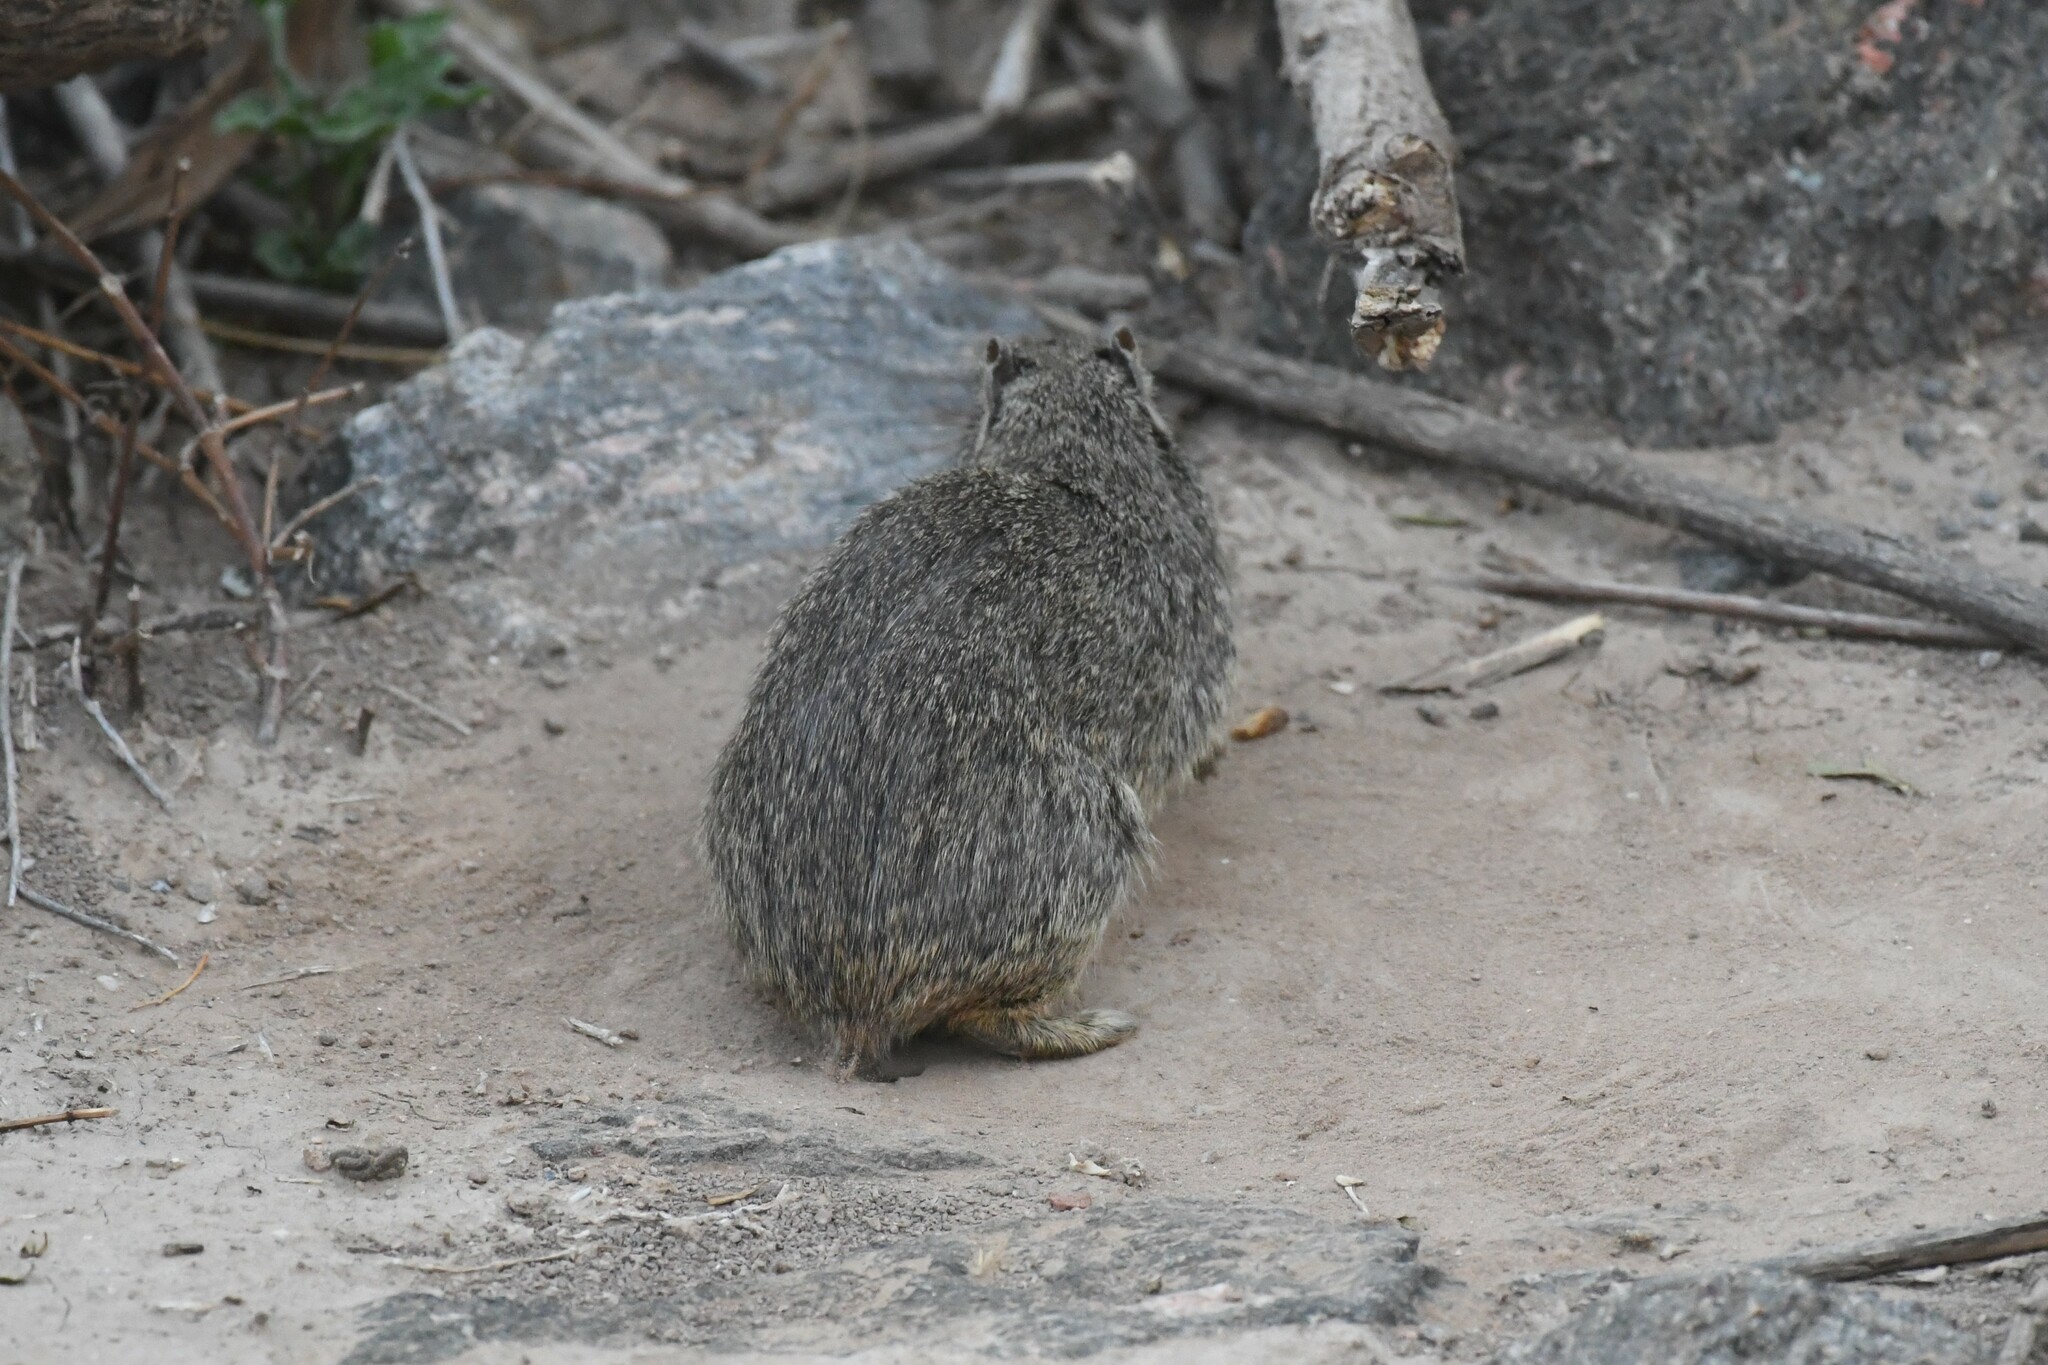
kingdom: Animalia
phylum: Chordata
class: Mammalia
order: Rodentia
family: Caviidae
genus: Galea
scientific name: Galea musteloides
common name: Common yellow-toothed cavy
